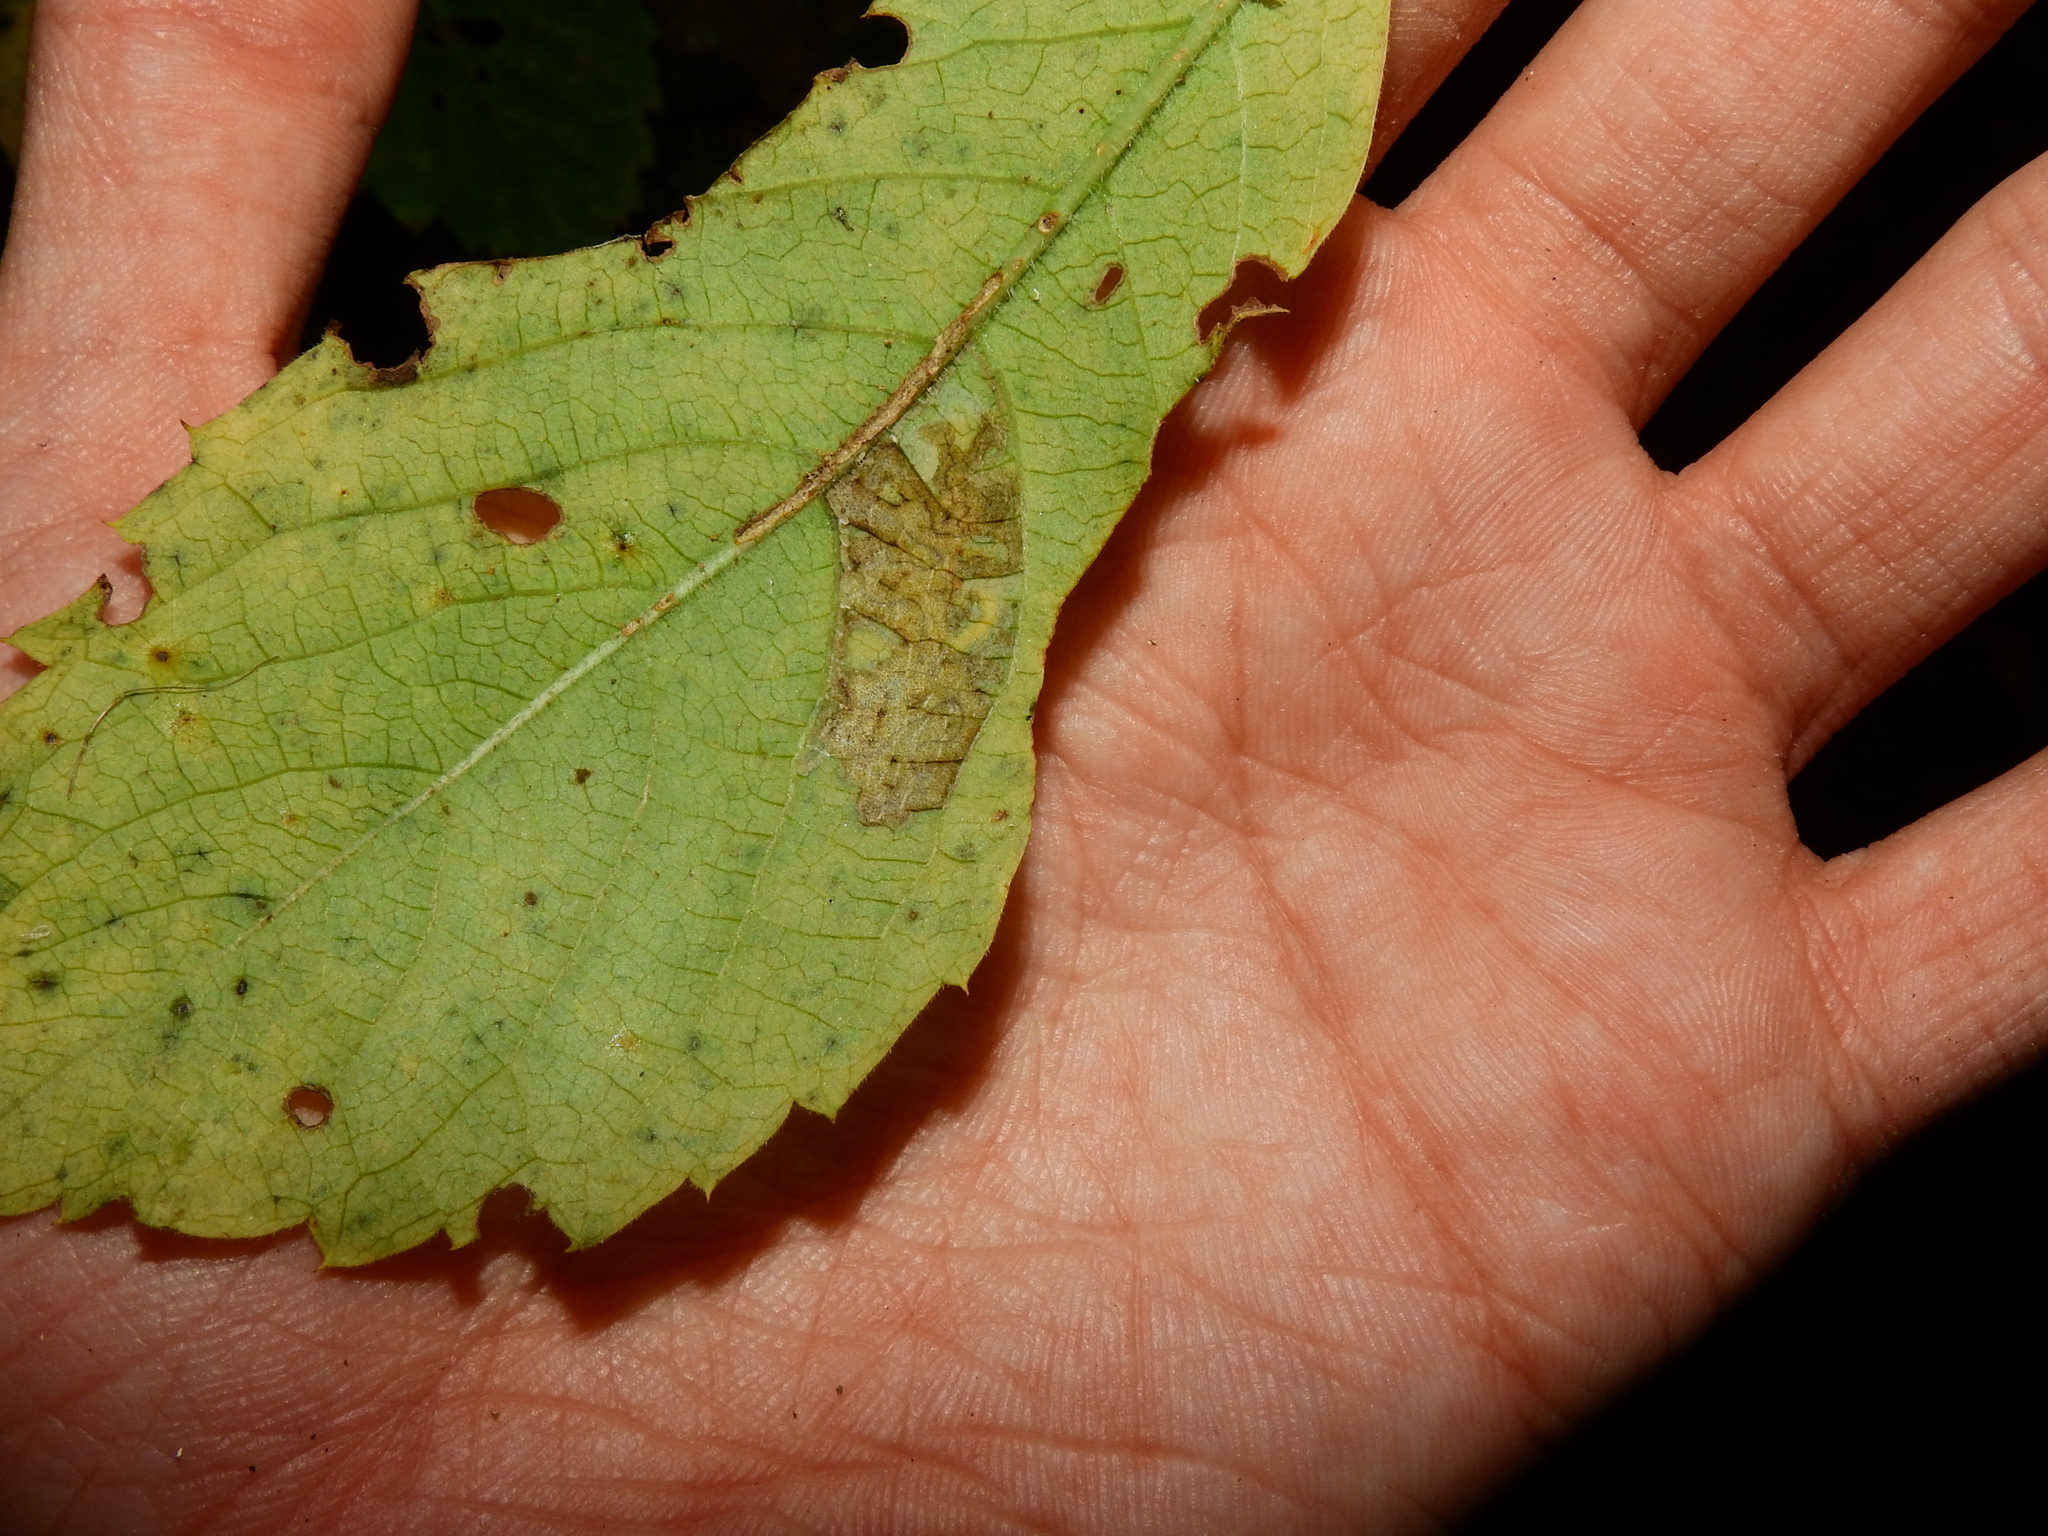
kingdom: Animalia
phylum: Arthropoda
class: Insecta
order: Lepidoptera
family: Gracillariidae
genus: Phyllocnistis
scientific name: Phyllocnistis ampelopsiella
